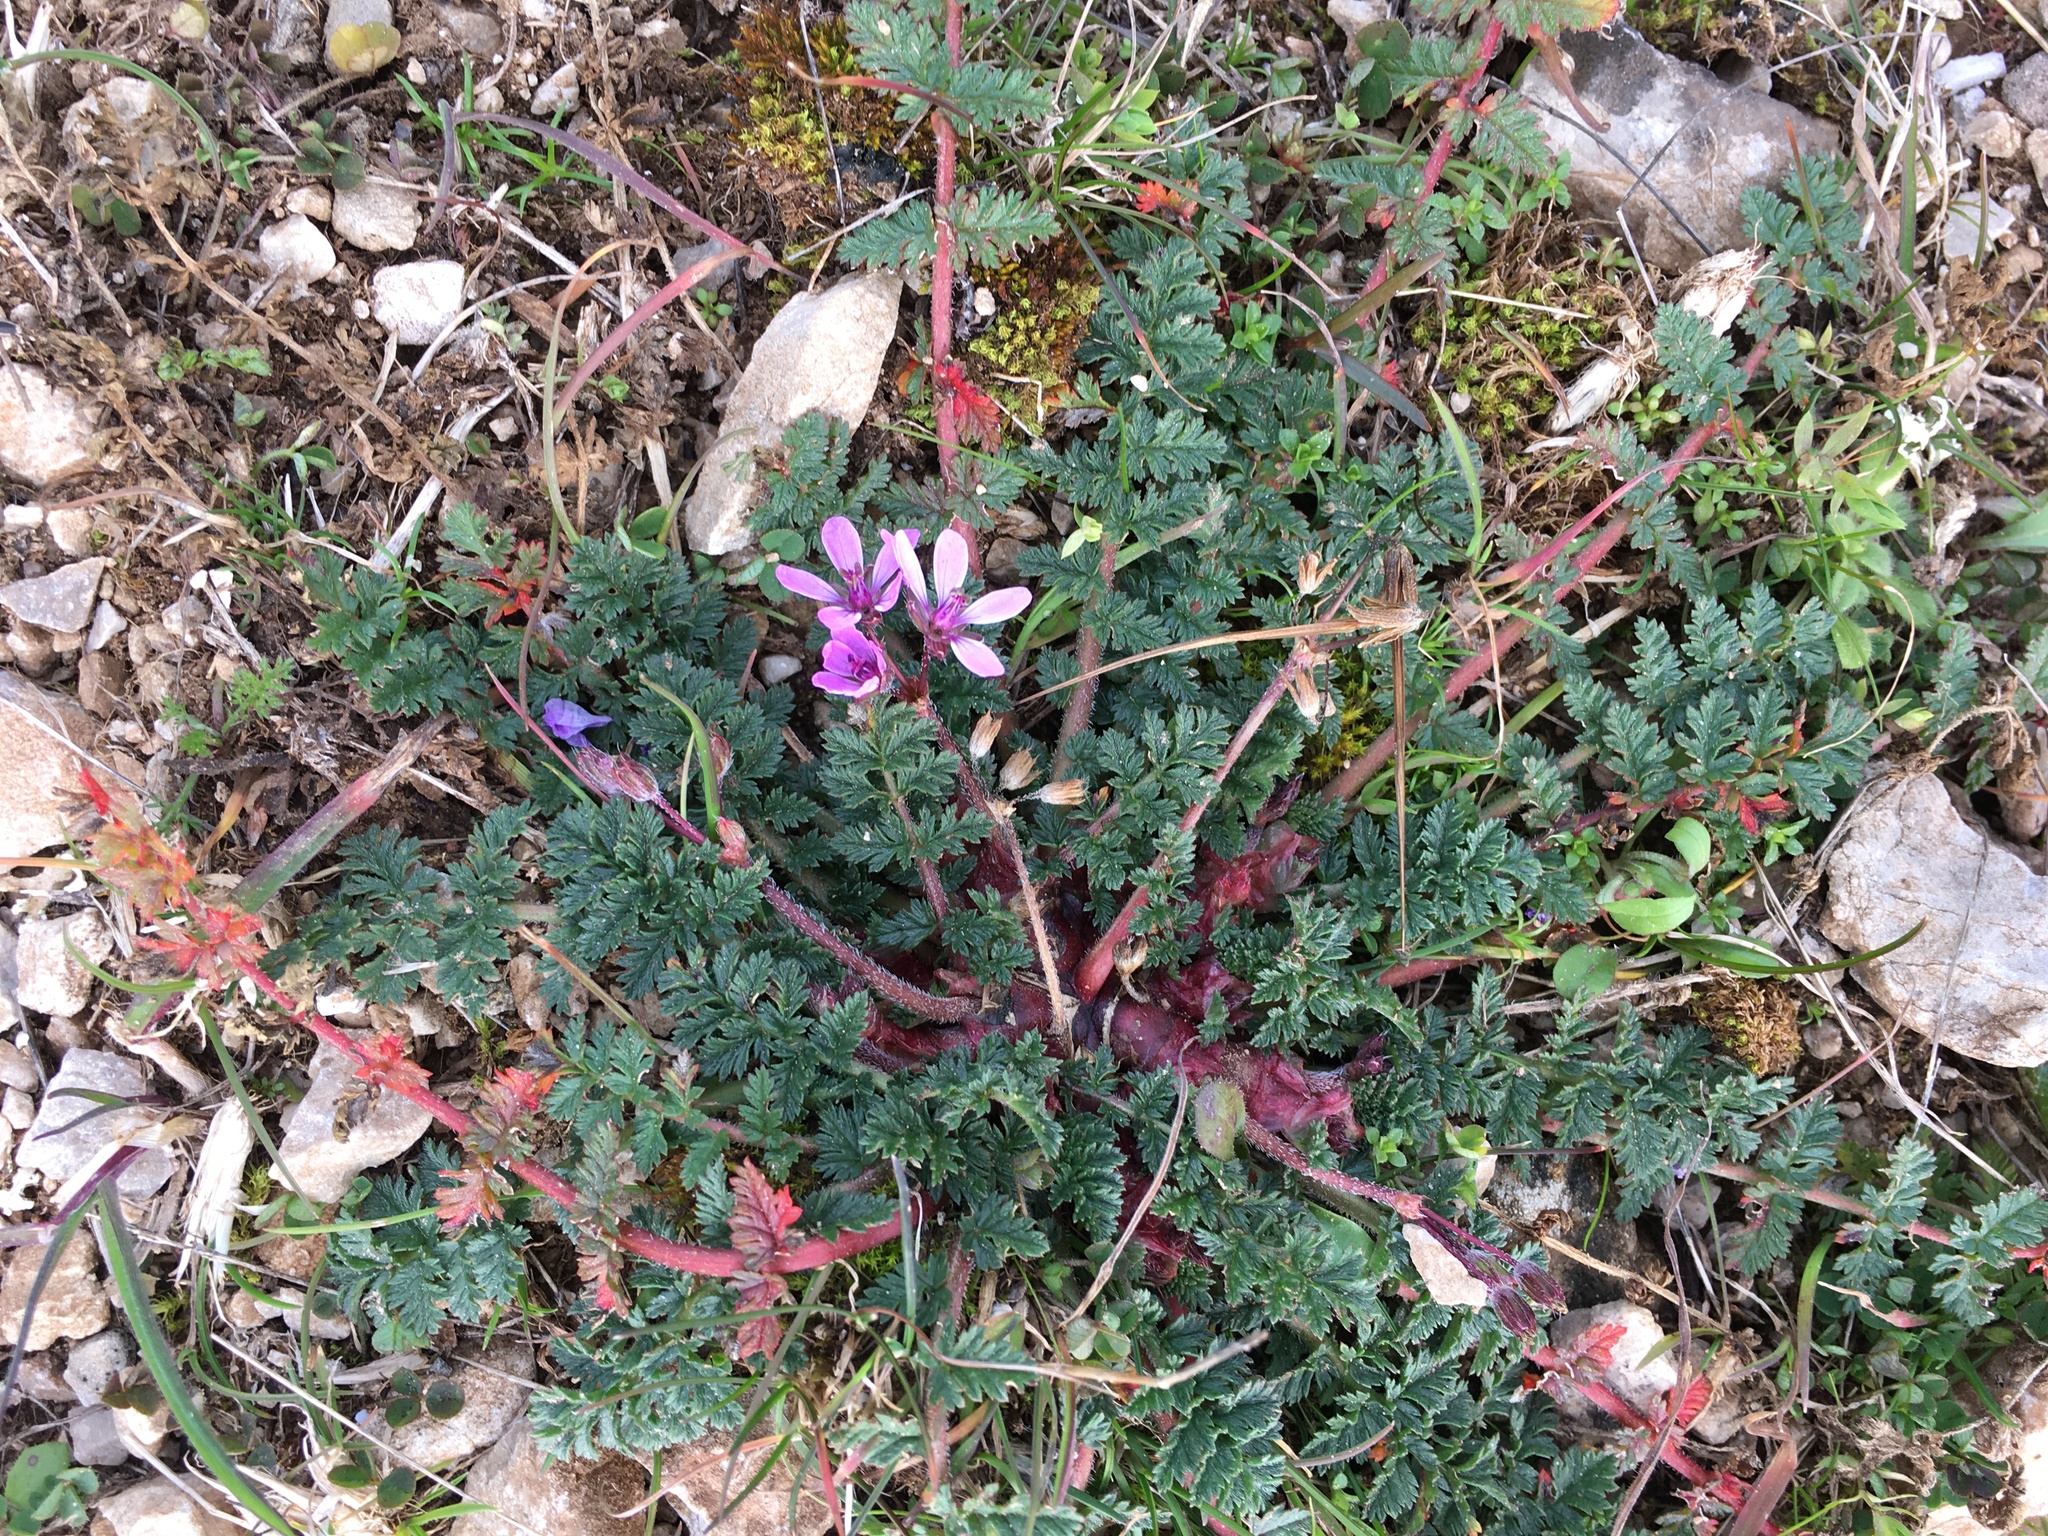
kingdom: Plantae
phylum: Tracheophyta
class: Magnoliopsida
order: Geraniales
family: Geraniaceae
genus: Erodium
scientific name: Erodium cicutarium
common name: Common stork's-bill
